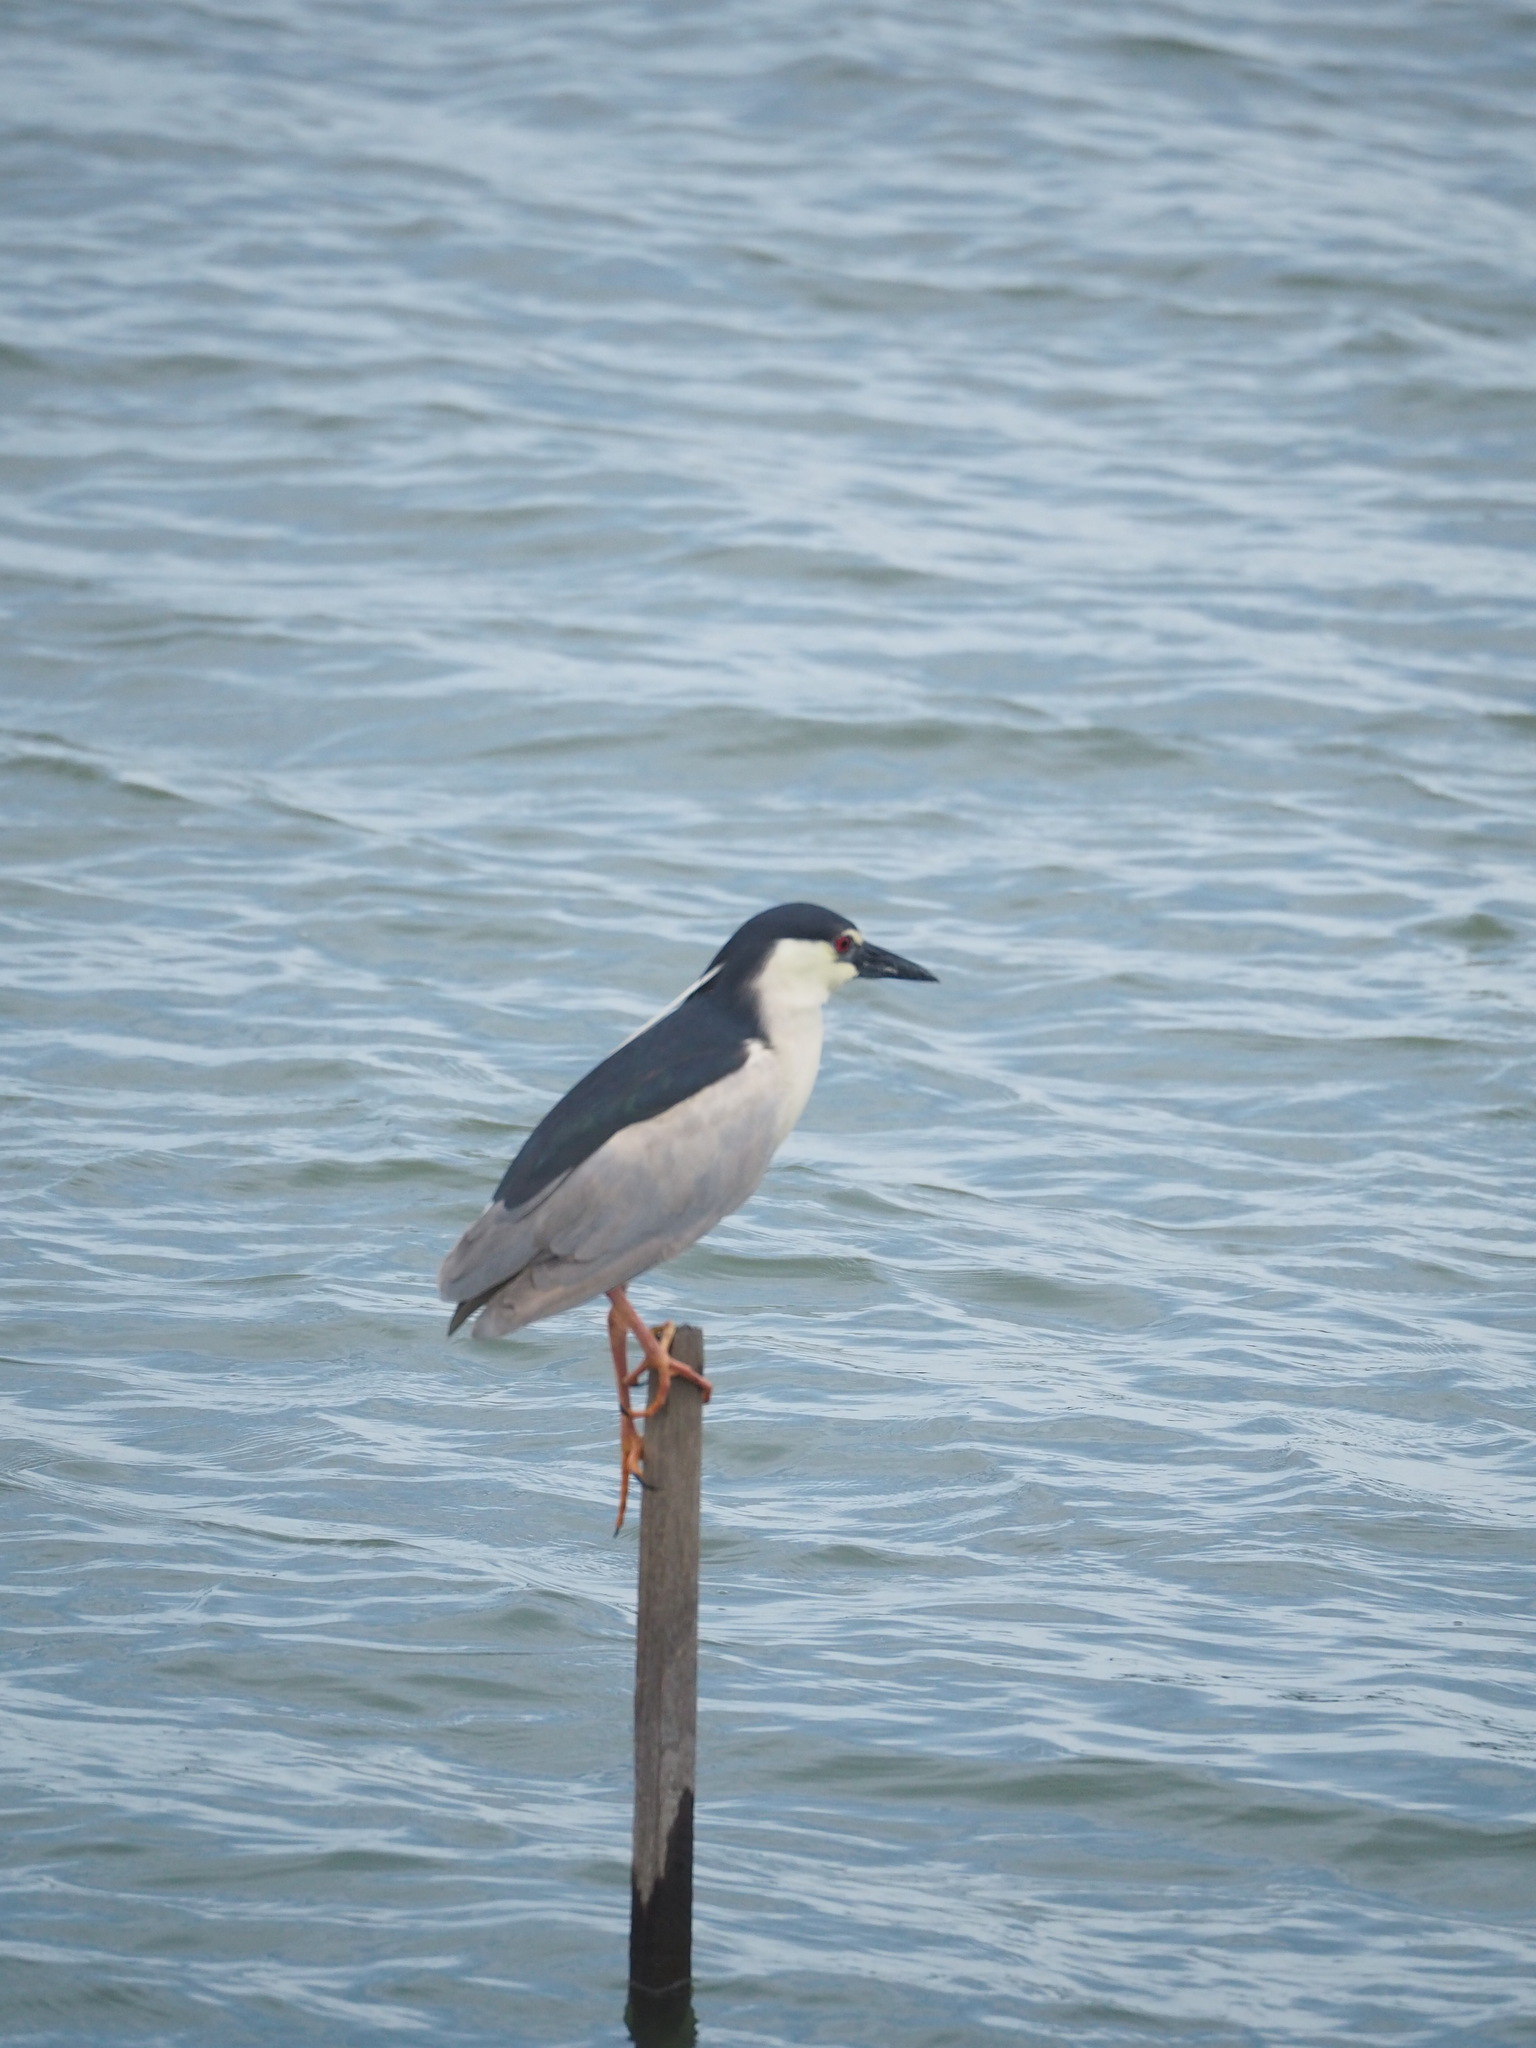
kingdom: Animalia
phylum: Chordata
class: Aves
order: Pelecaniformes
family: Ardeidae
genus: Nycticorax
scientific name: Nycticorax nycticorax
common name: Black-crowned night heron
